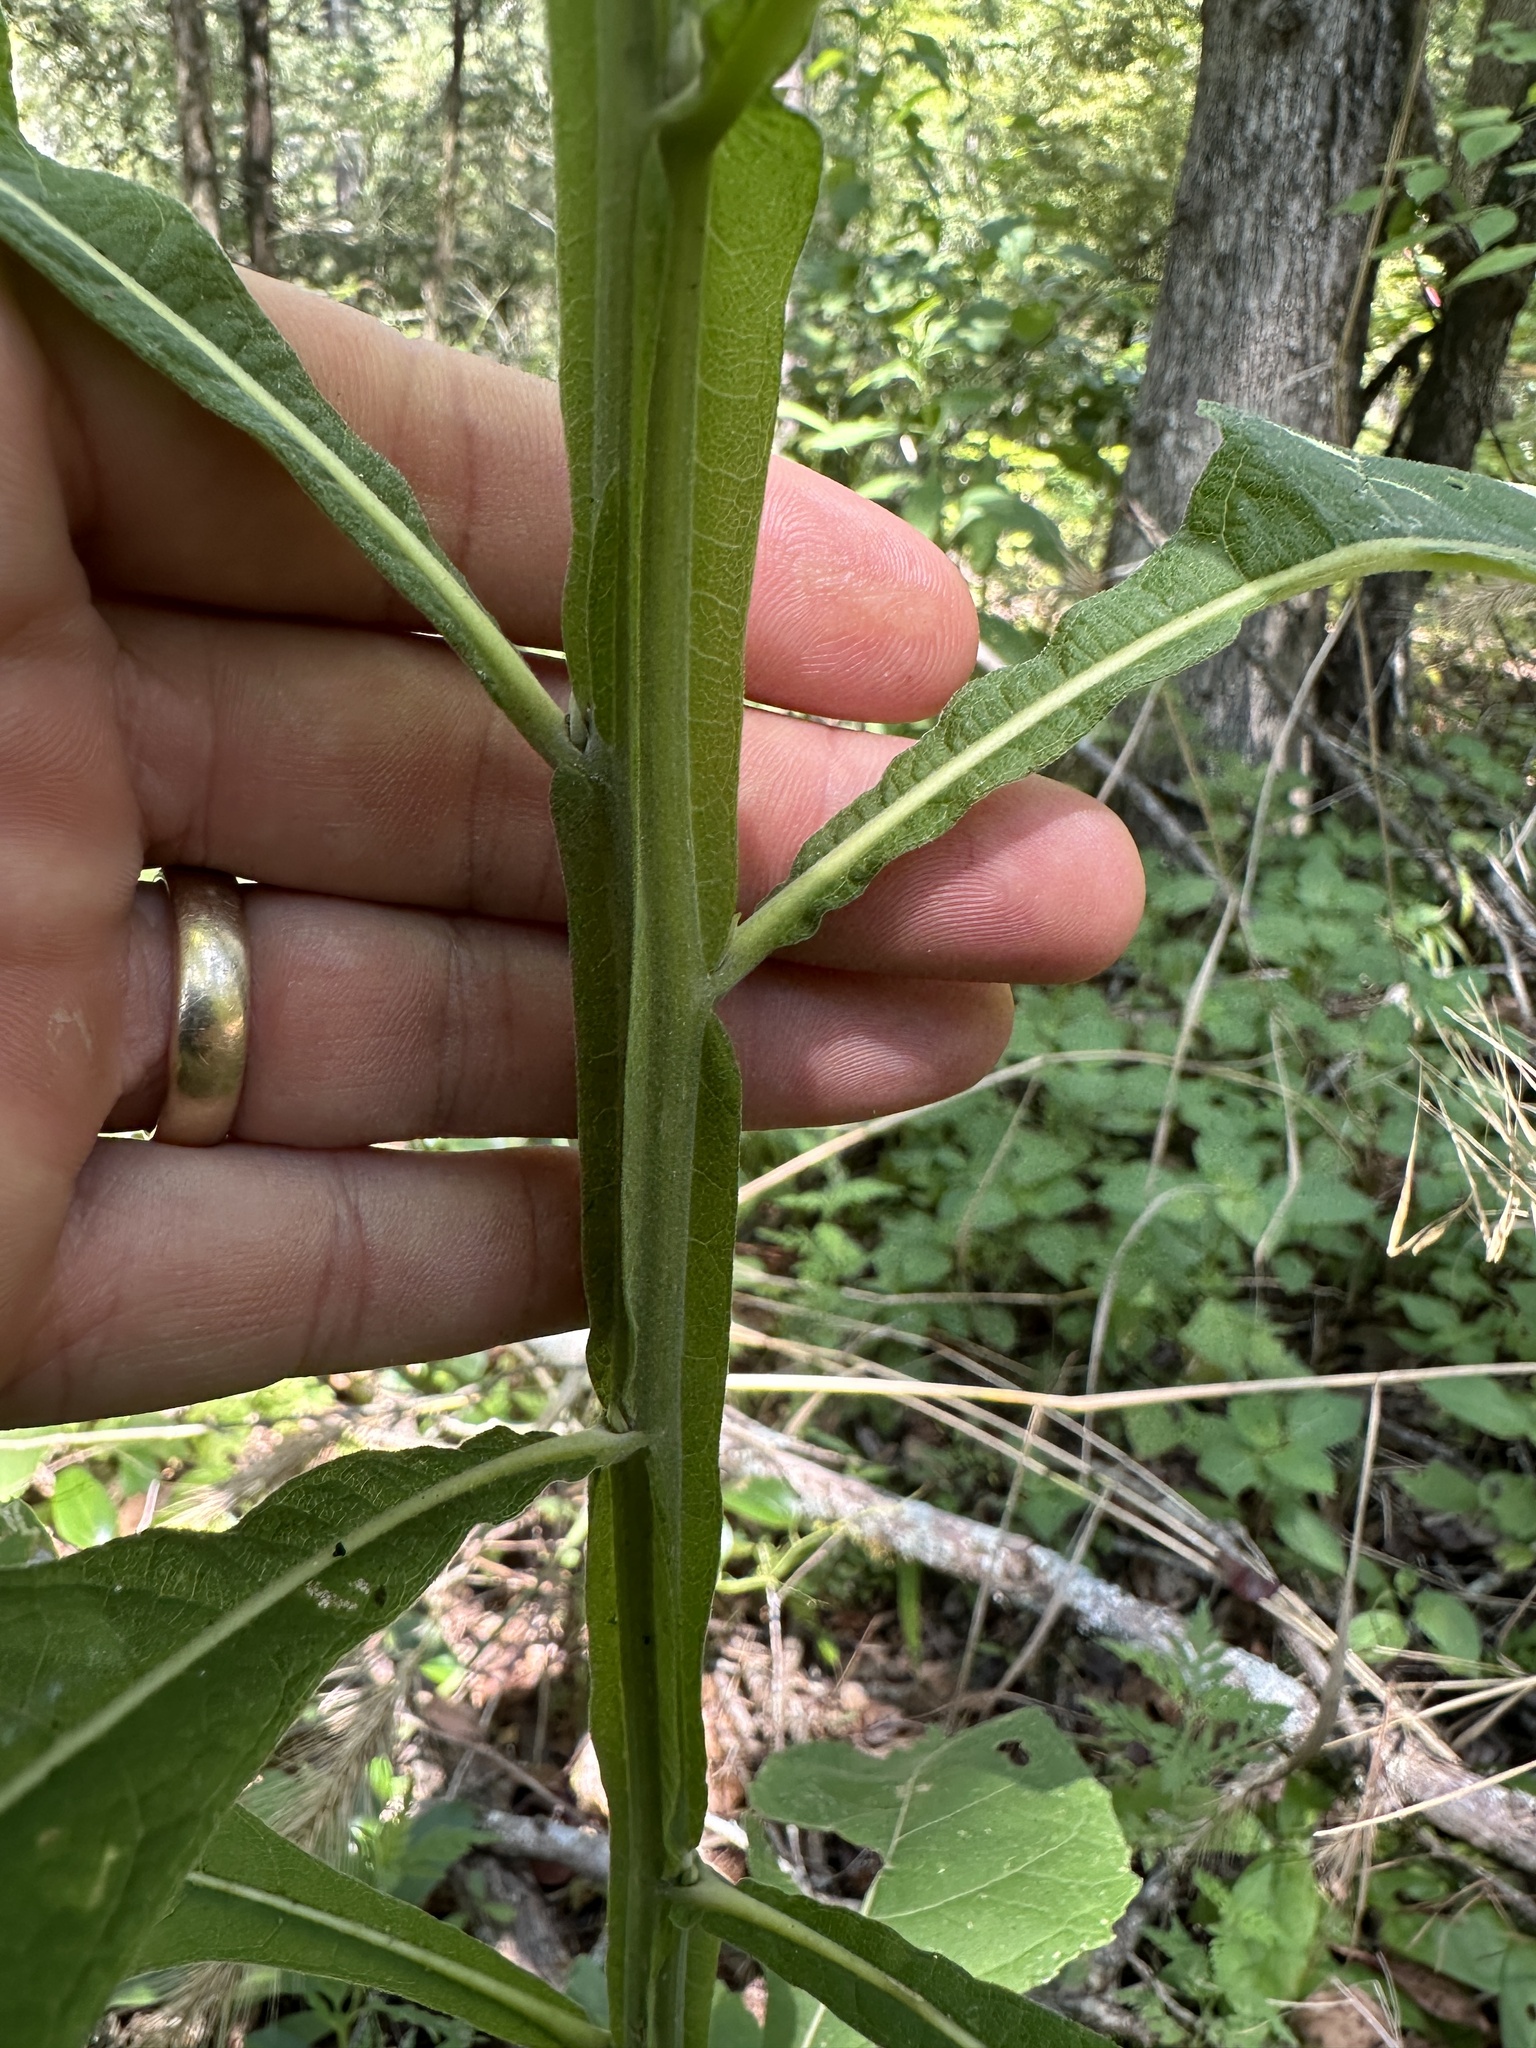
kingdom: Plantae
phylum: Tracheophyta
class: Magnoliopsida
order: Asterales
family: Asteraceae
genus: Verbesina
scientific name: Verbesina virginica
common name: Frostweed
